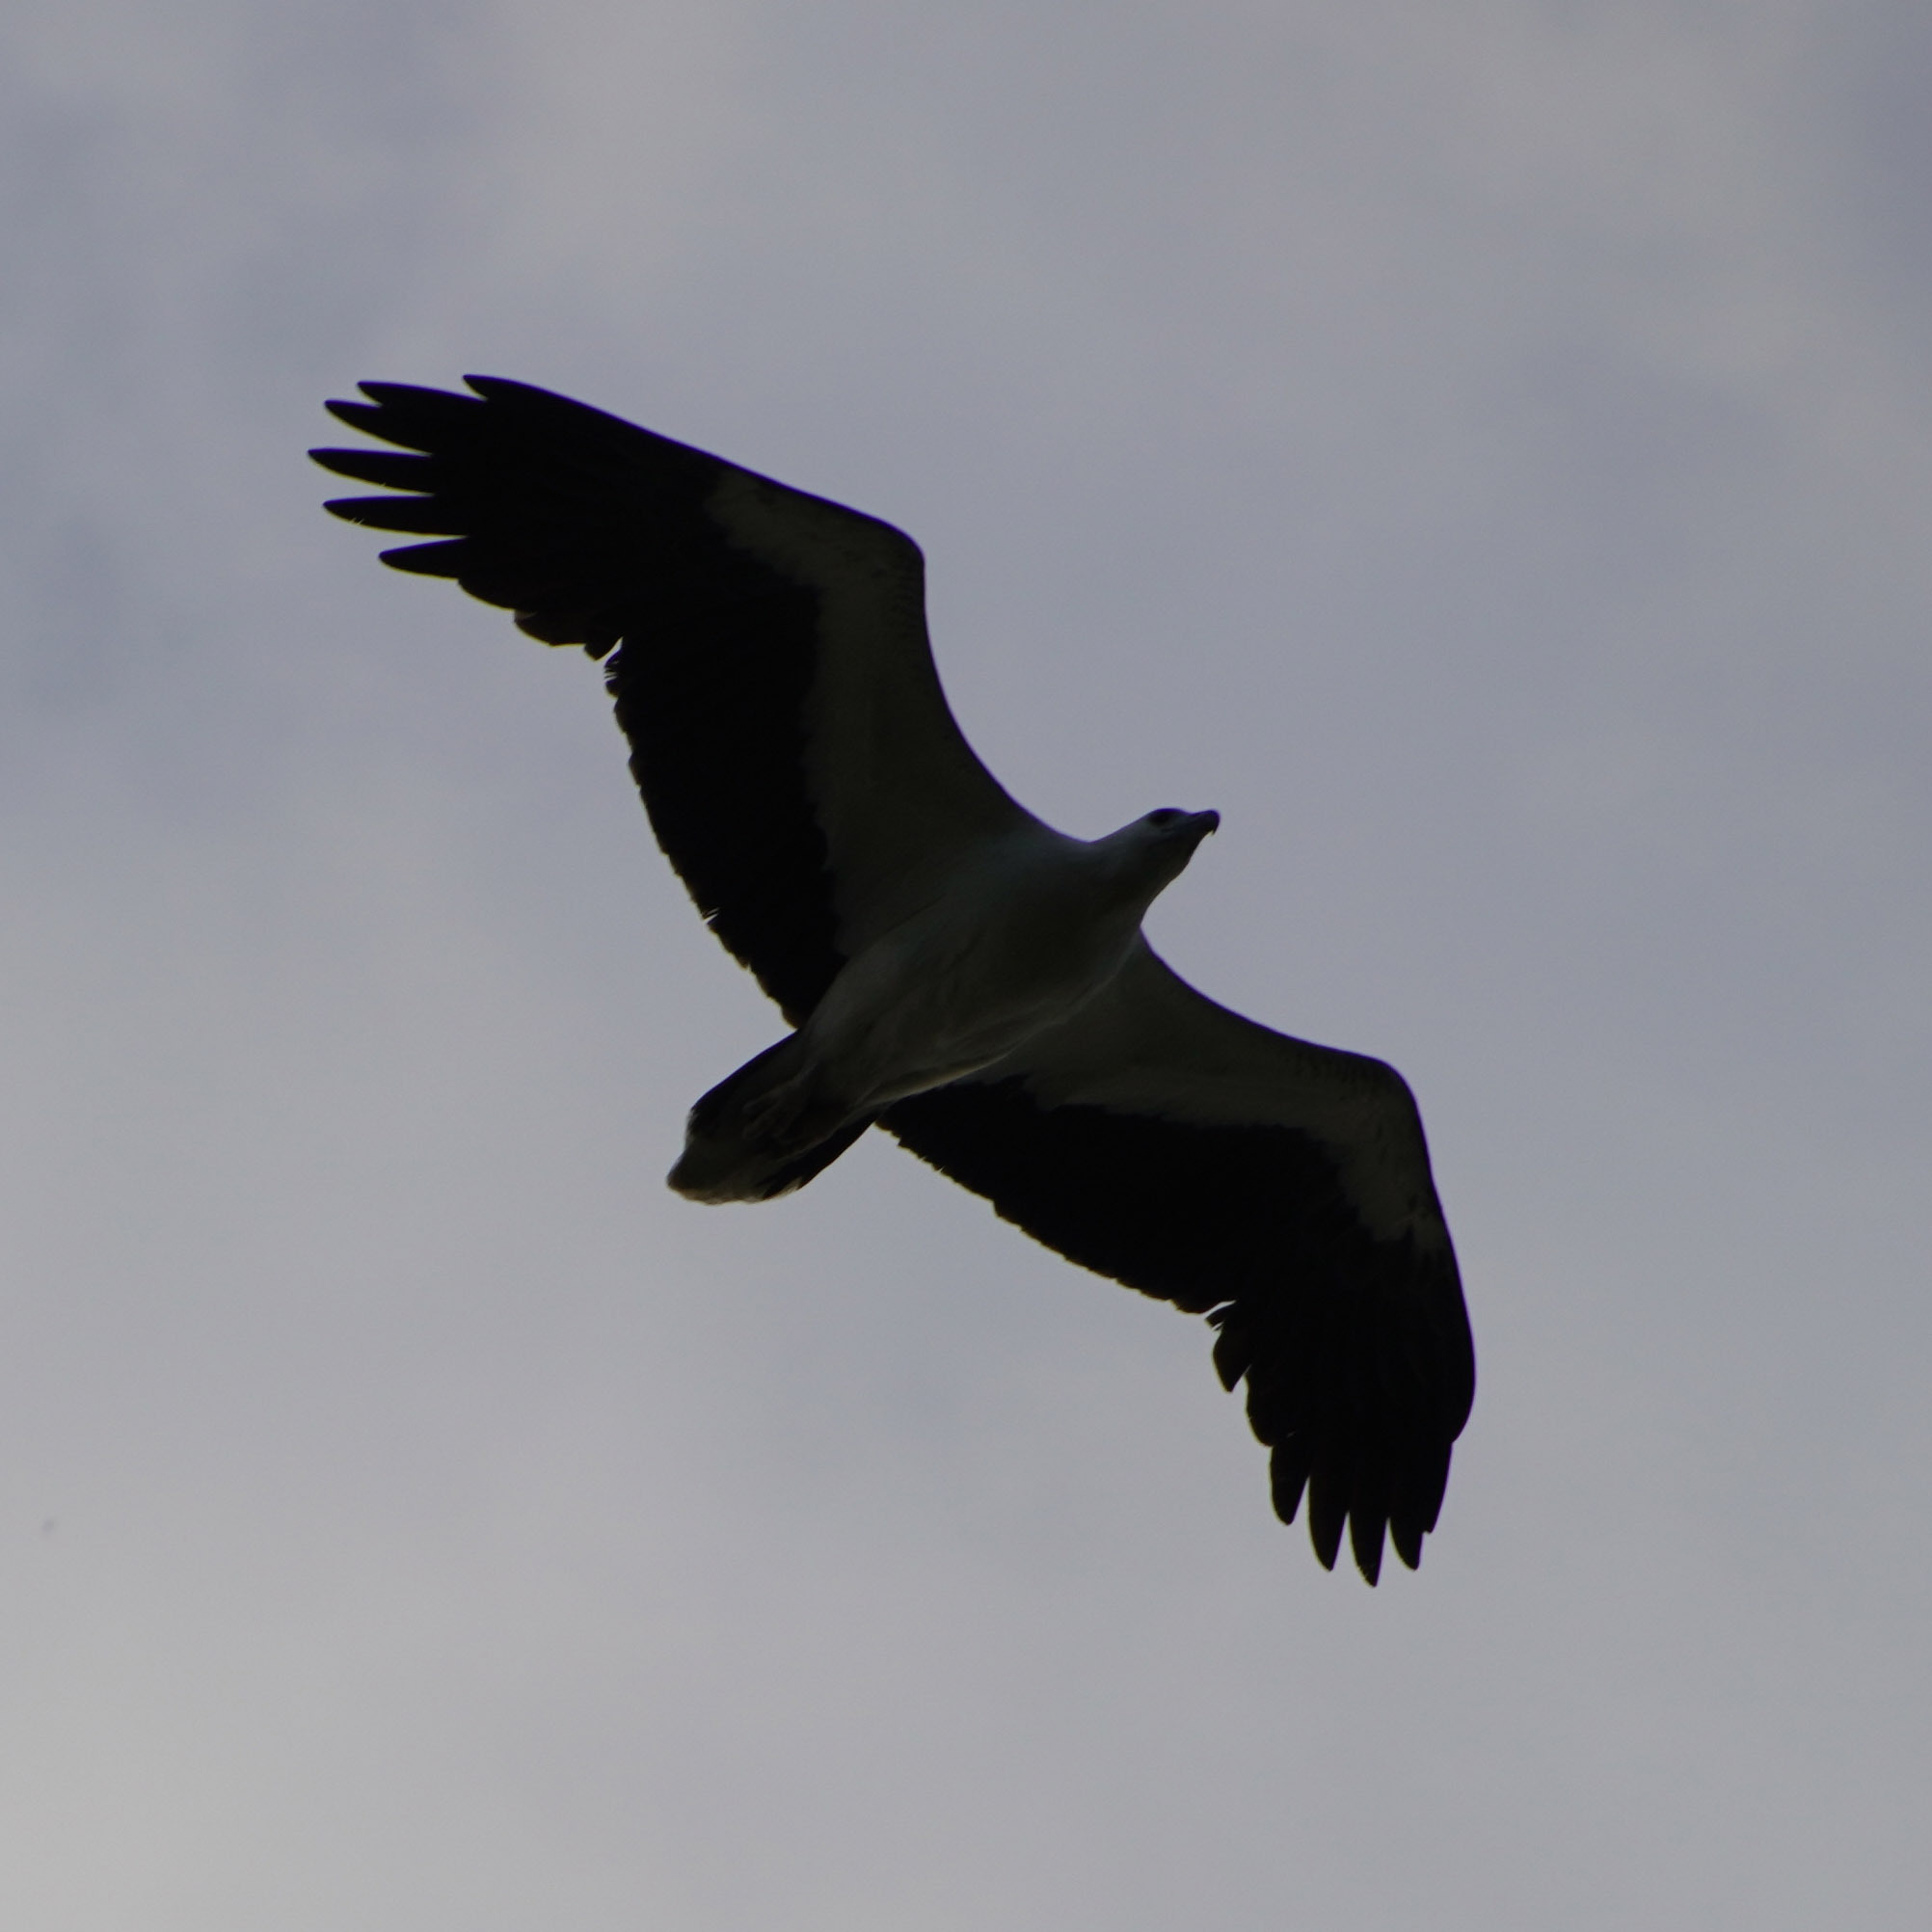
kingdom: Animalia
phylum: Chordata
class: Aves
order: Accipitriformes
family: Accipitridae
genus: Haliaeetus
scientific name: Haliaeetus leucogaster
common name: White-bellied sea eagle
